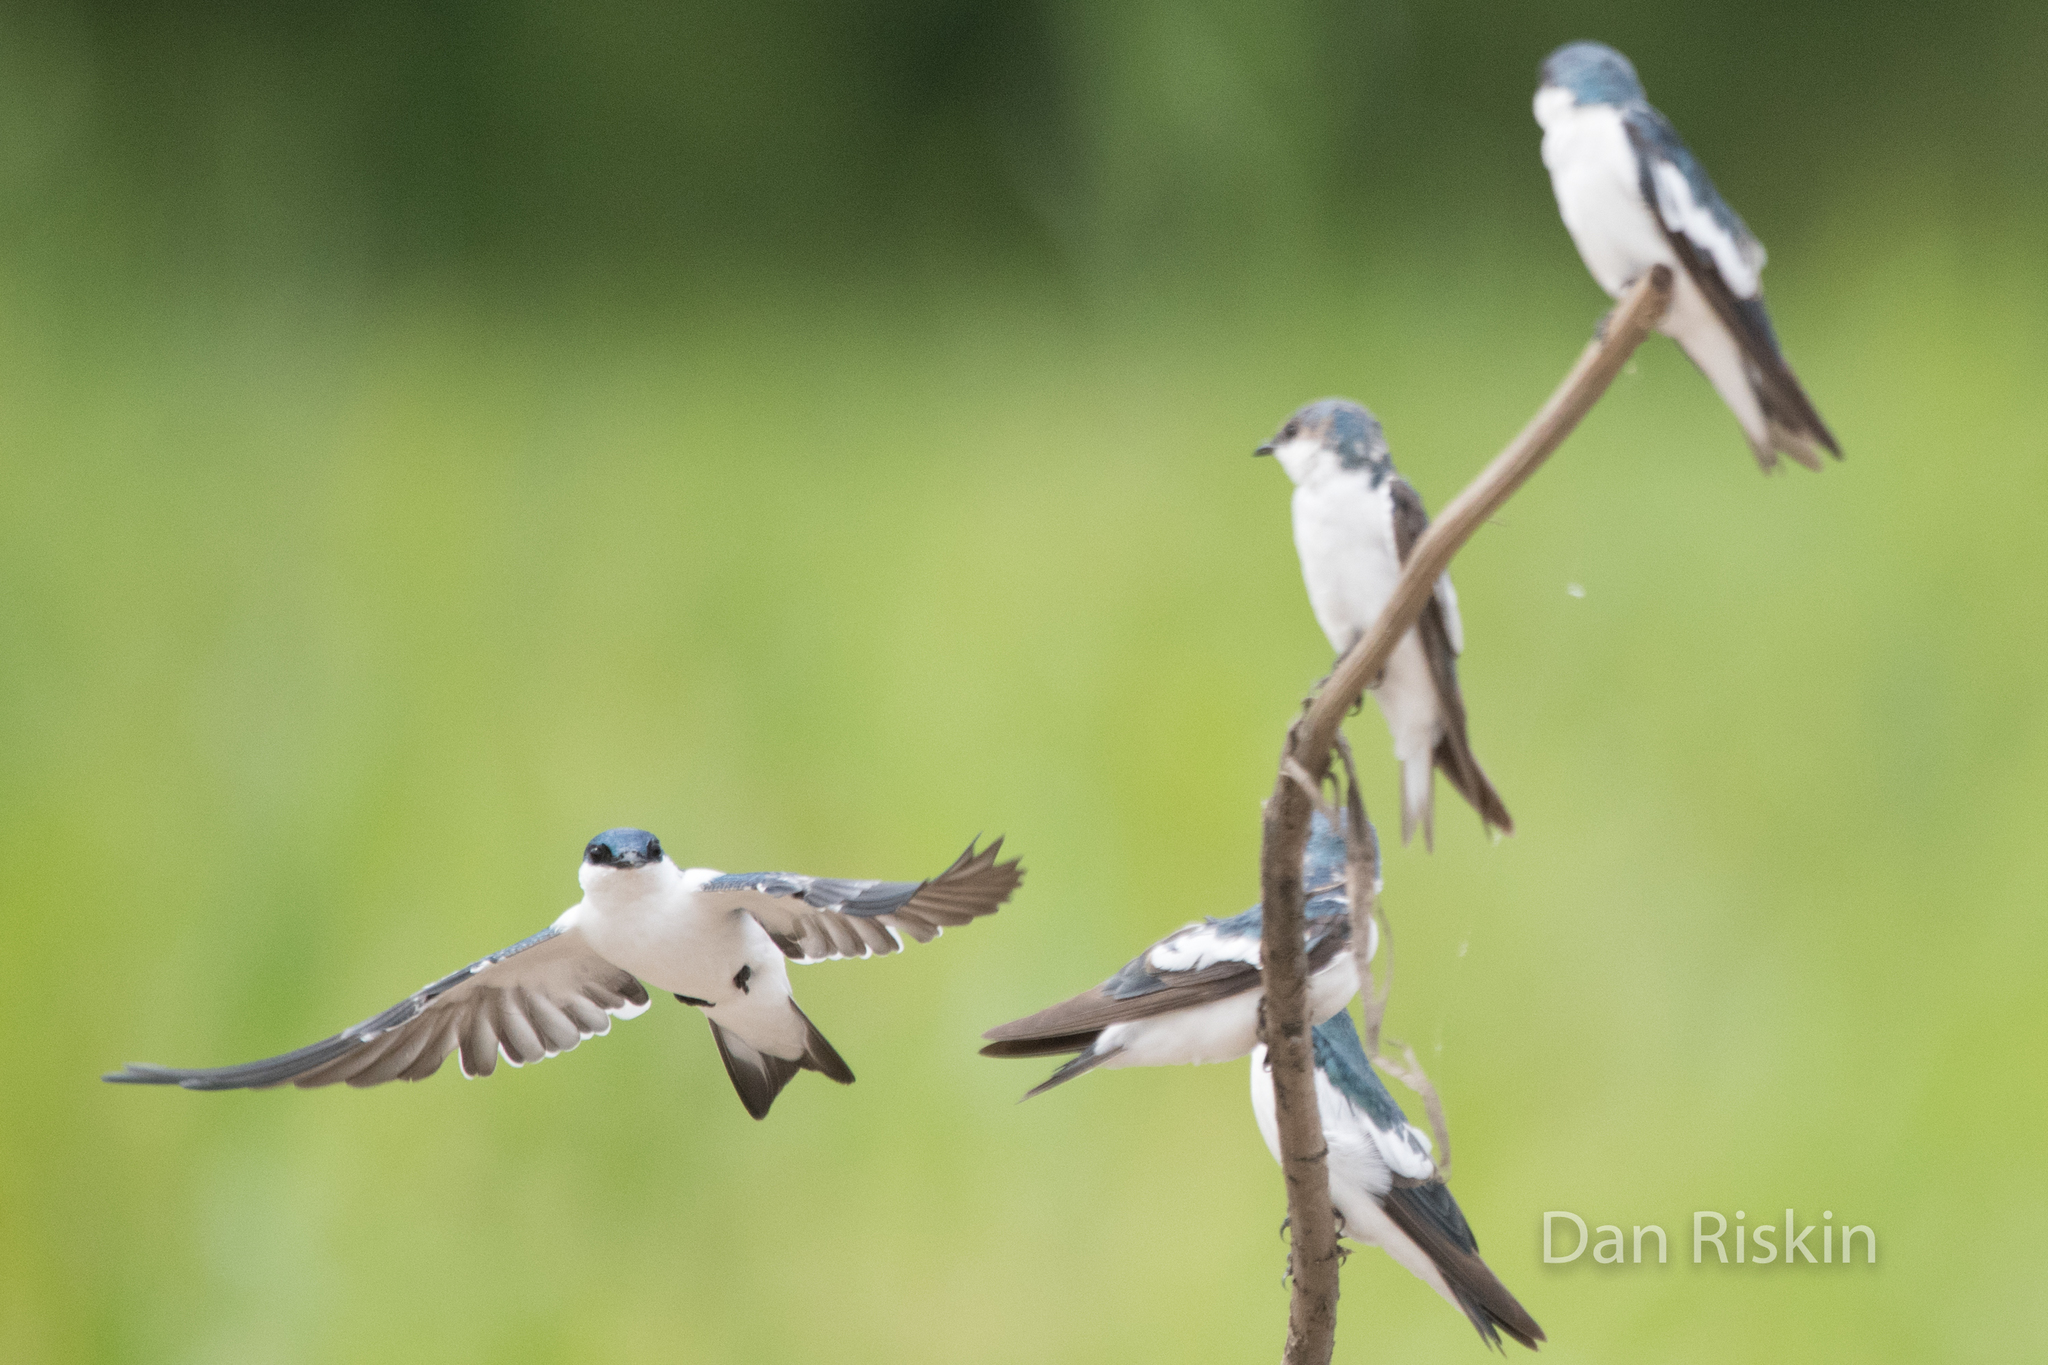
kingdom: Animalia
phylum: Chordata
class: Aves
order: Passeriformes
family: Hirundinidae
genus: Tachycineta
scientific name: Tachycineta albiventer
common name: White-winged swallow
